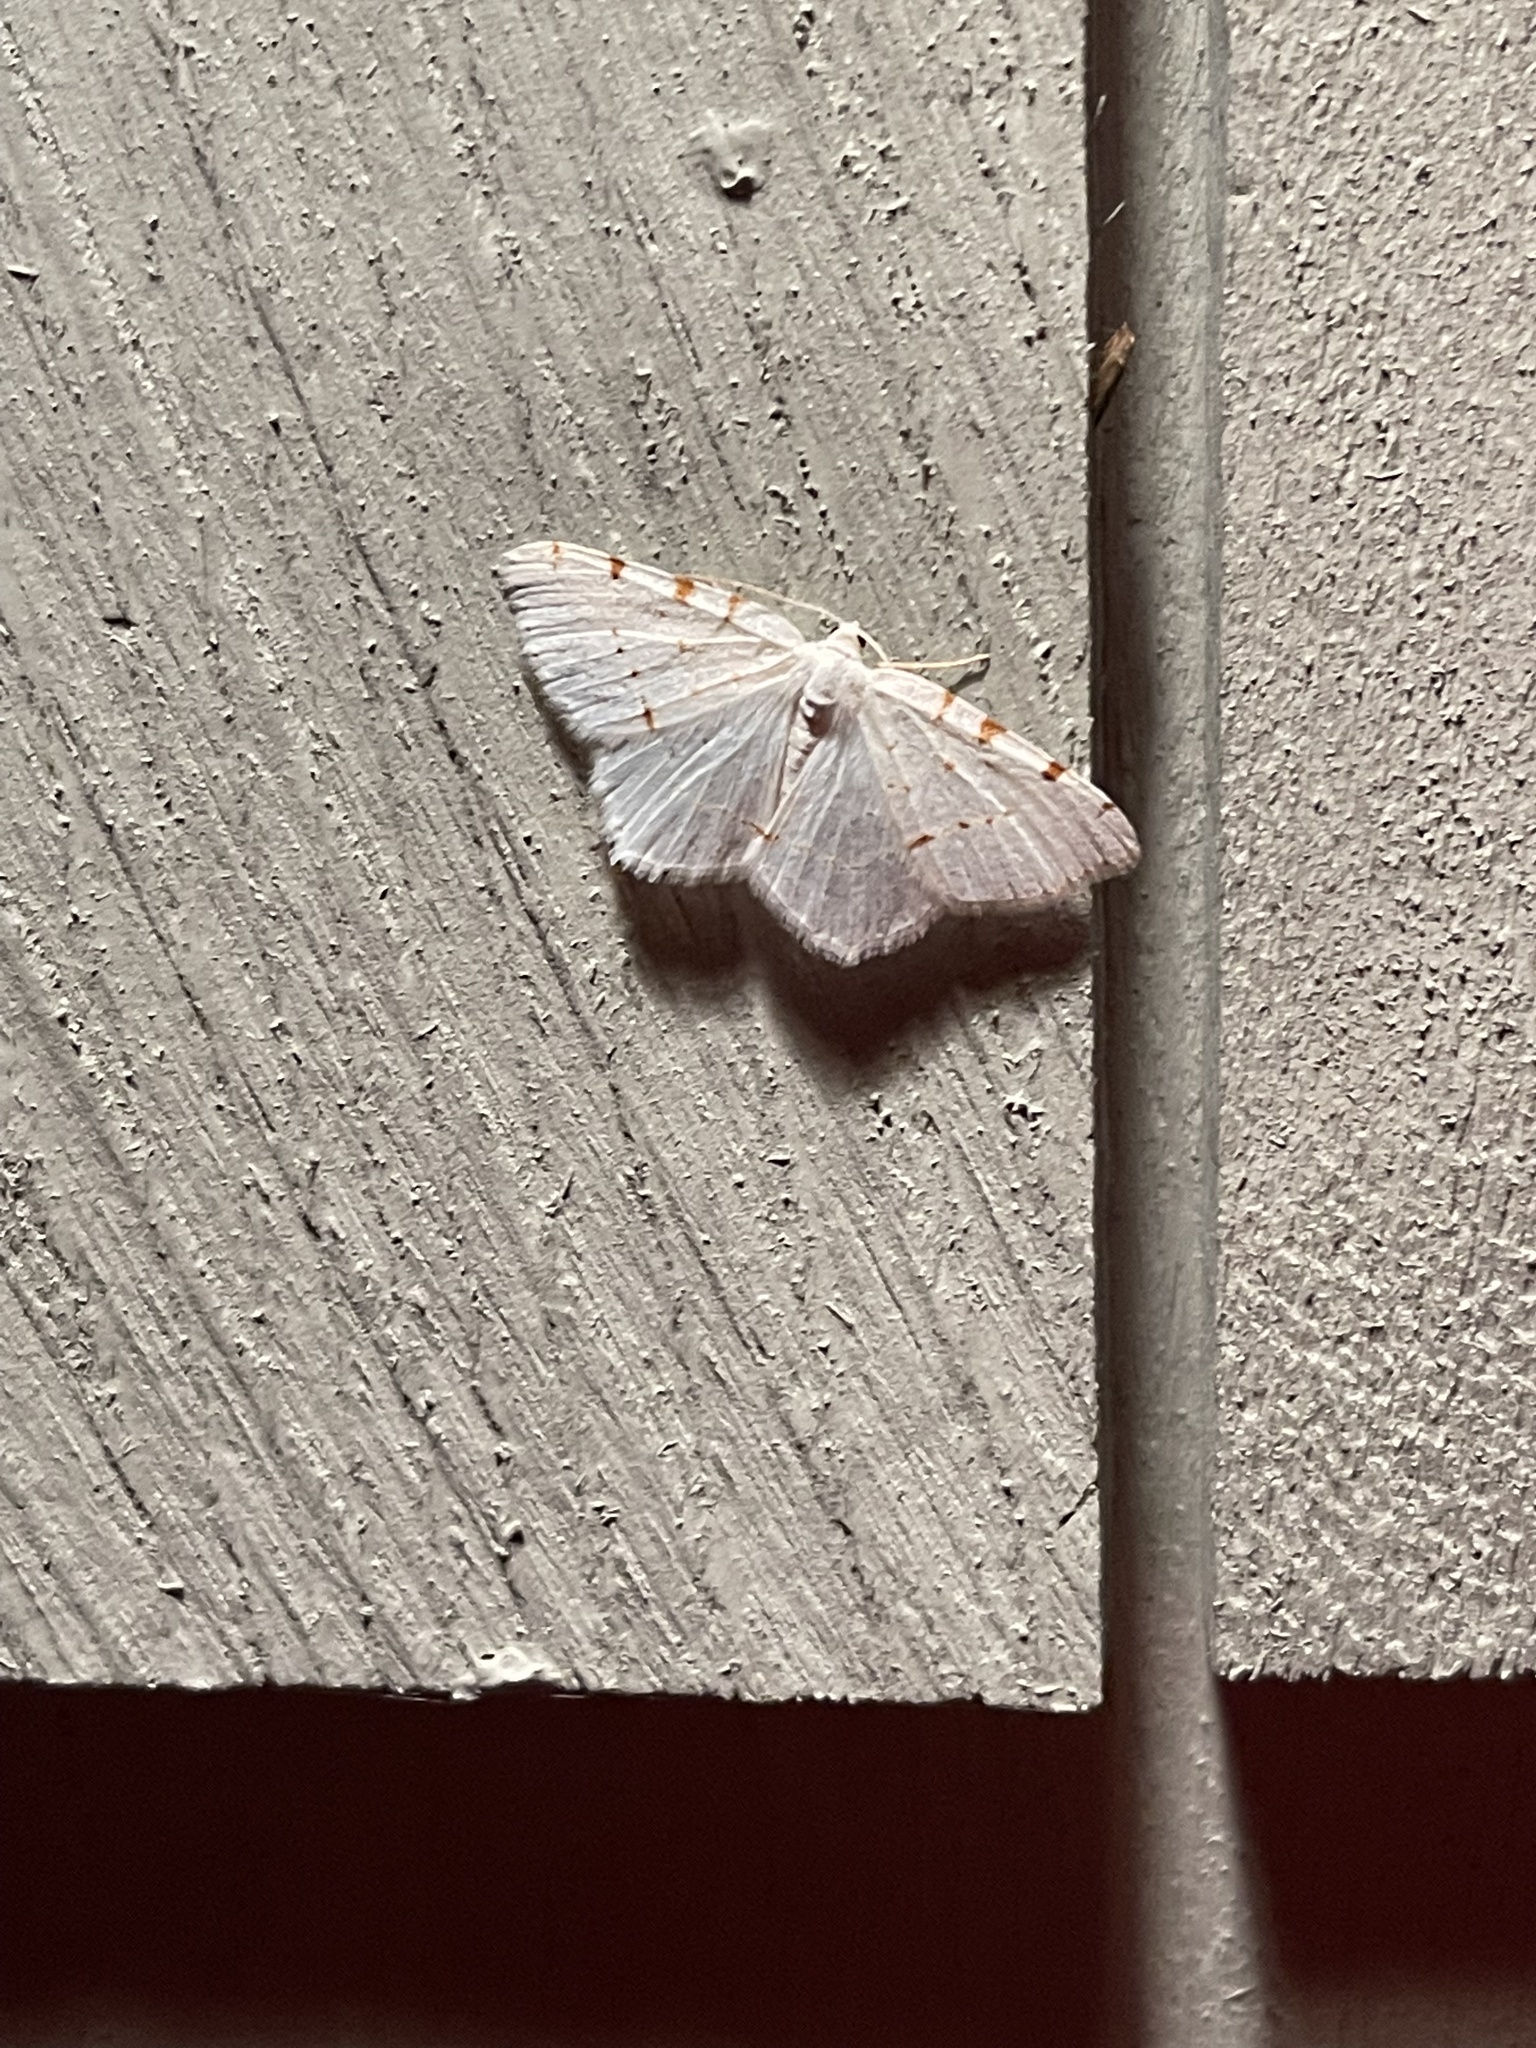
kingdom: Animalia
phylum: Arthropoda
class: Insecta
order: Lepidoptera
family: Geometridae
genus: Macaria
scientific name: Macaria pustularia
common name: Lesser maple spanworm moth
